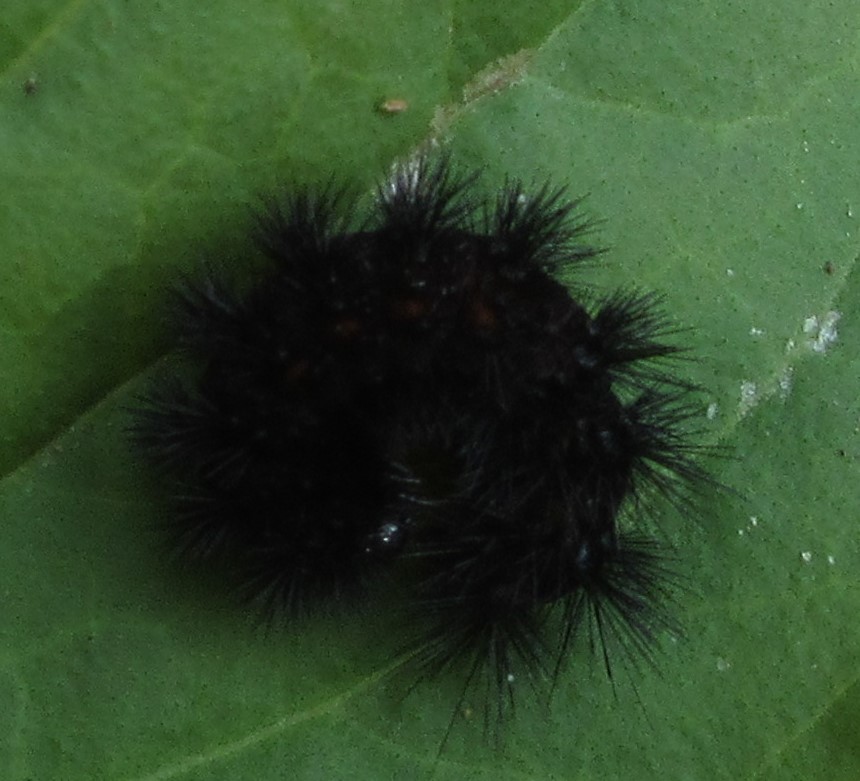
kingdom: Animalia
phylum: Arthropoda
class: Insecta
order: Lepidoptera
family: Erebidae
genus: Spilosoma
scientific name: Spilosoma congrua
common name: Agreeable tiger moth
